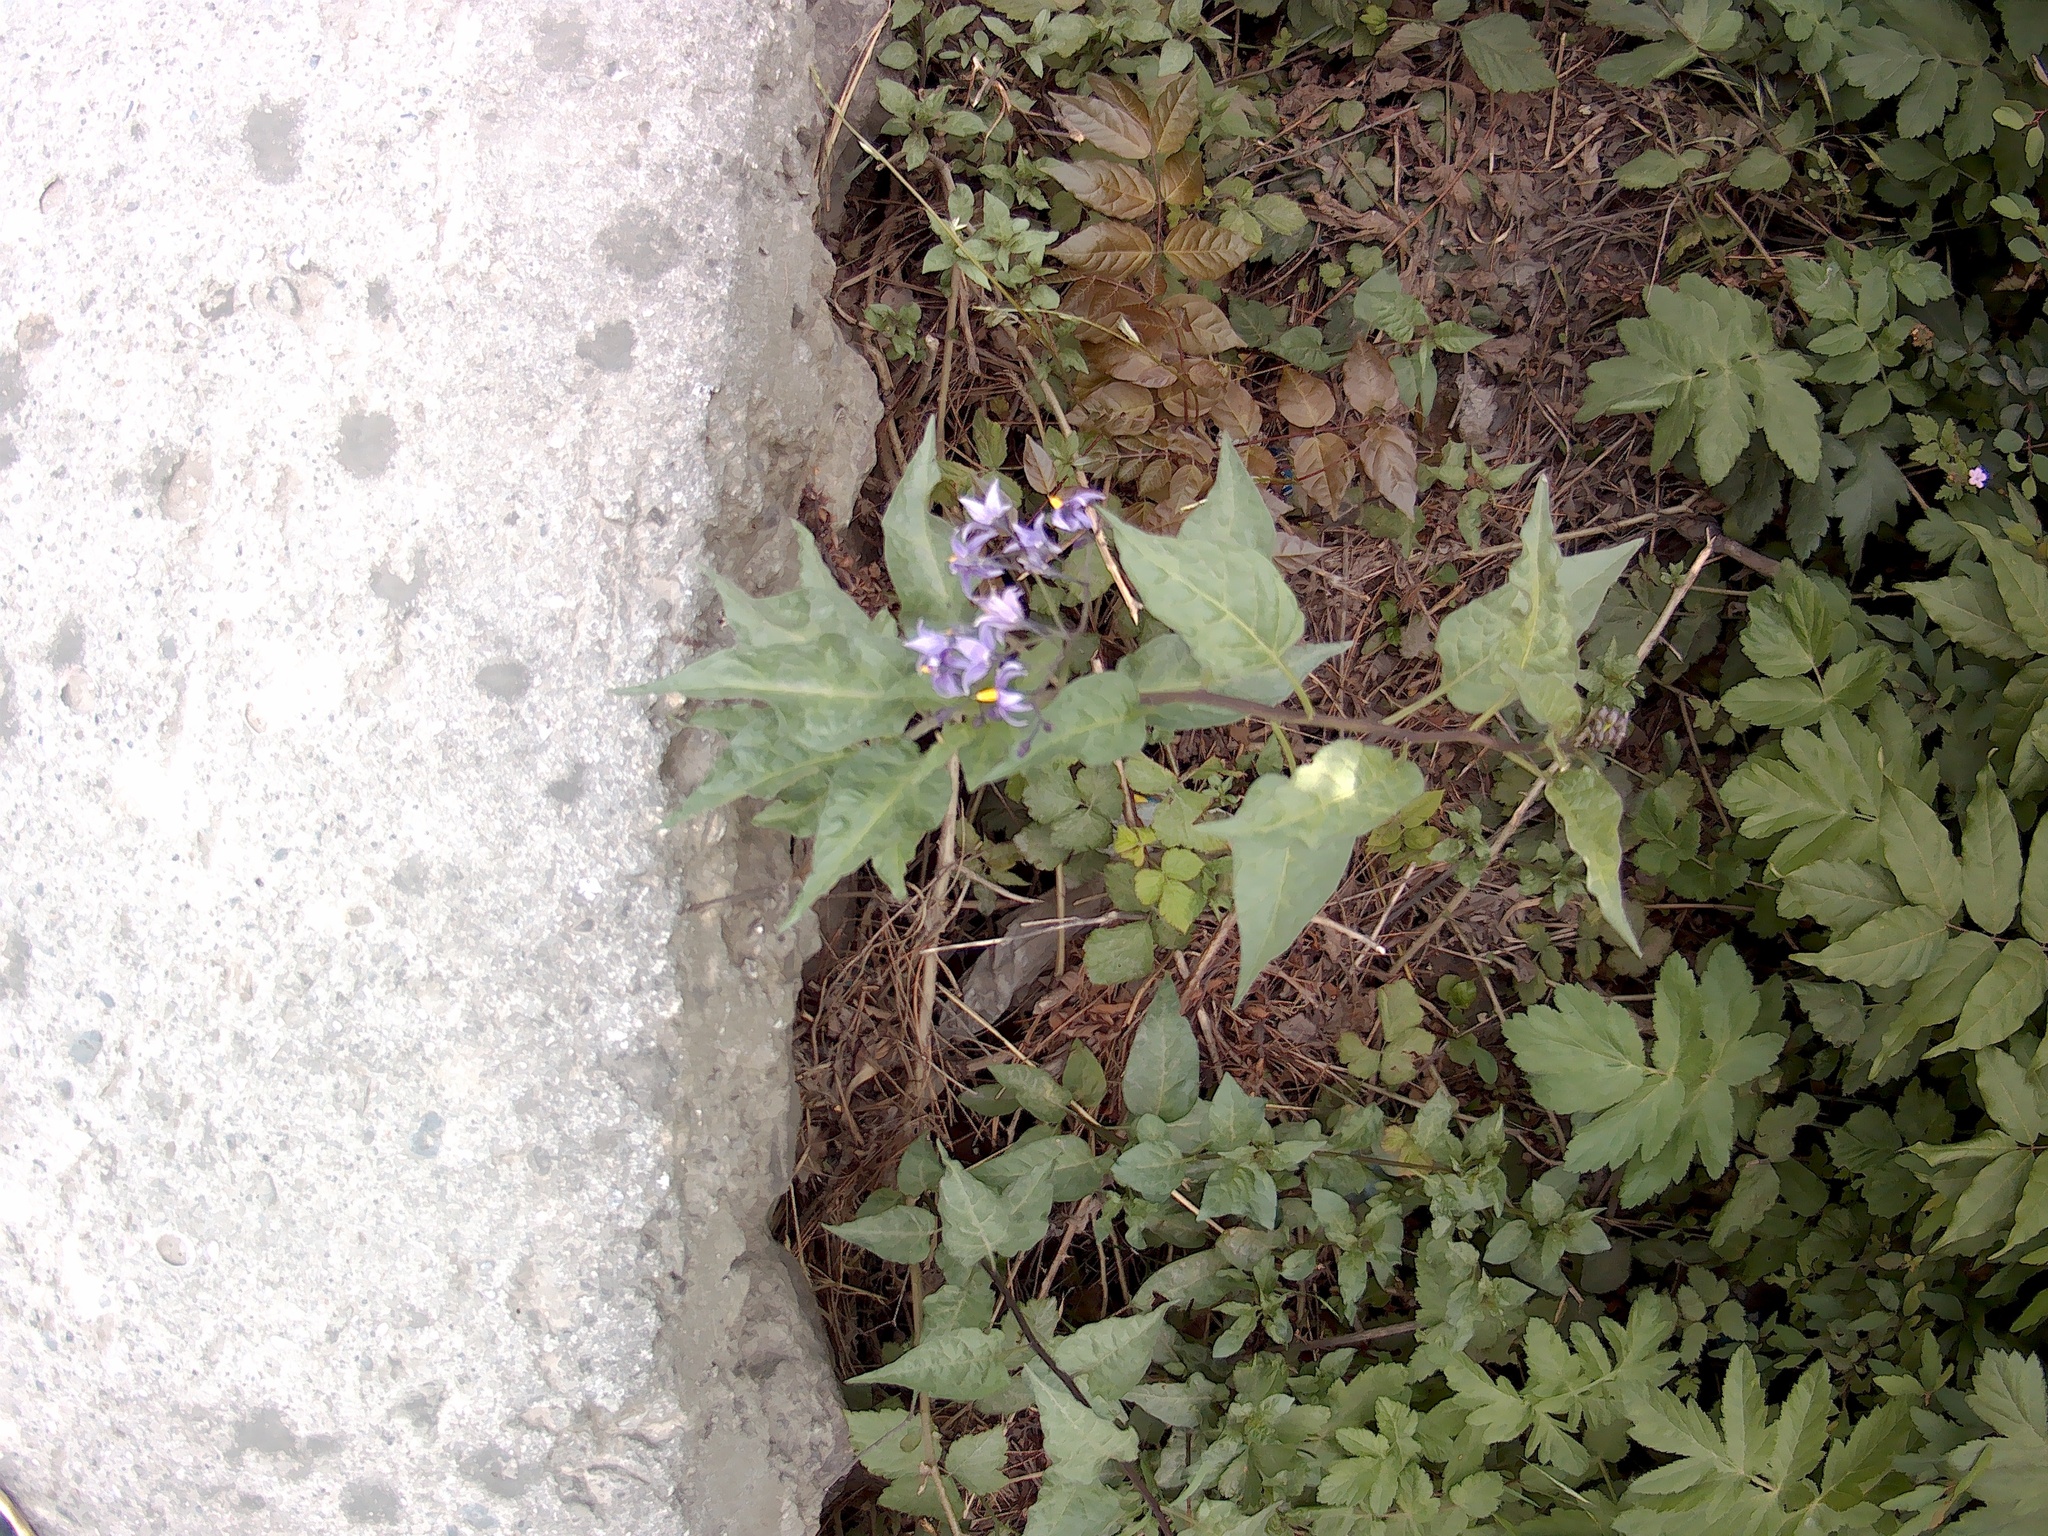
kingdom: Plantae
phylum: Tracheophyta
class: Magnoliopsida
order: Solanales
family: Solanaceae
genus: Solanum
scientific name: Solanum dulcamara
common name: Climbing nightshade
